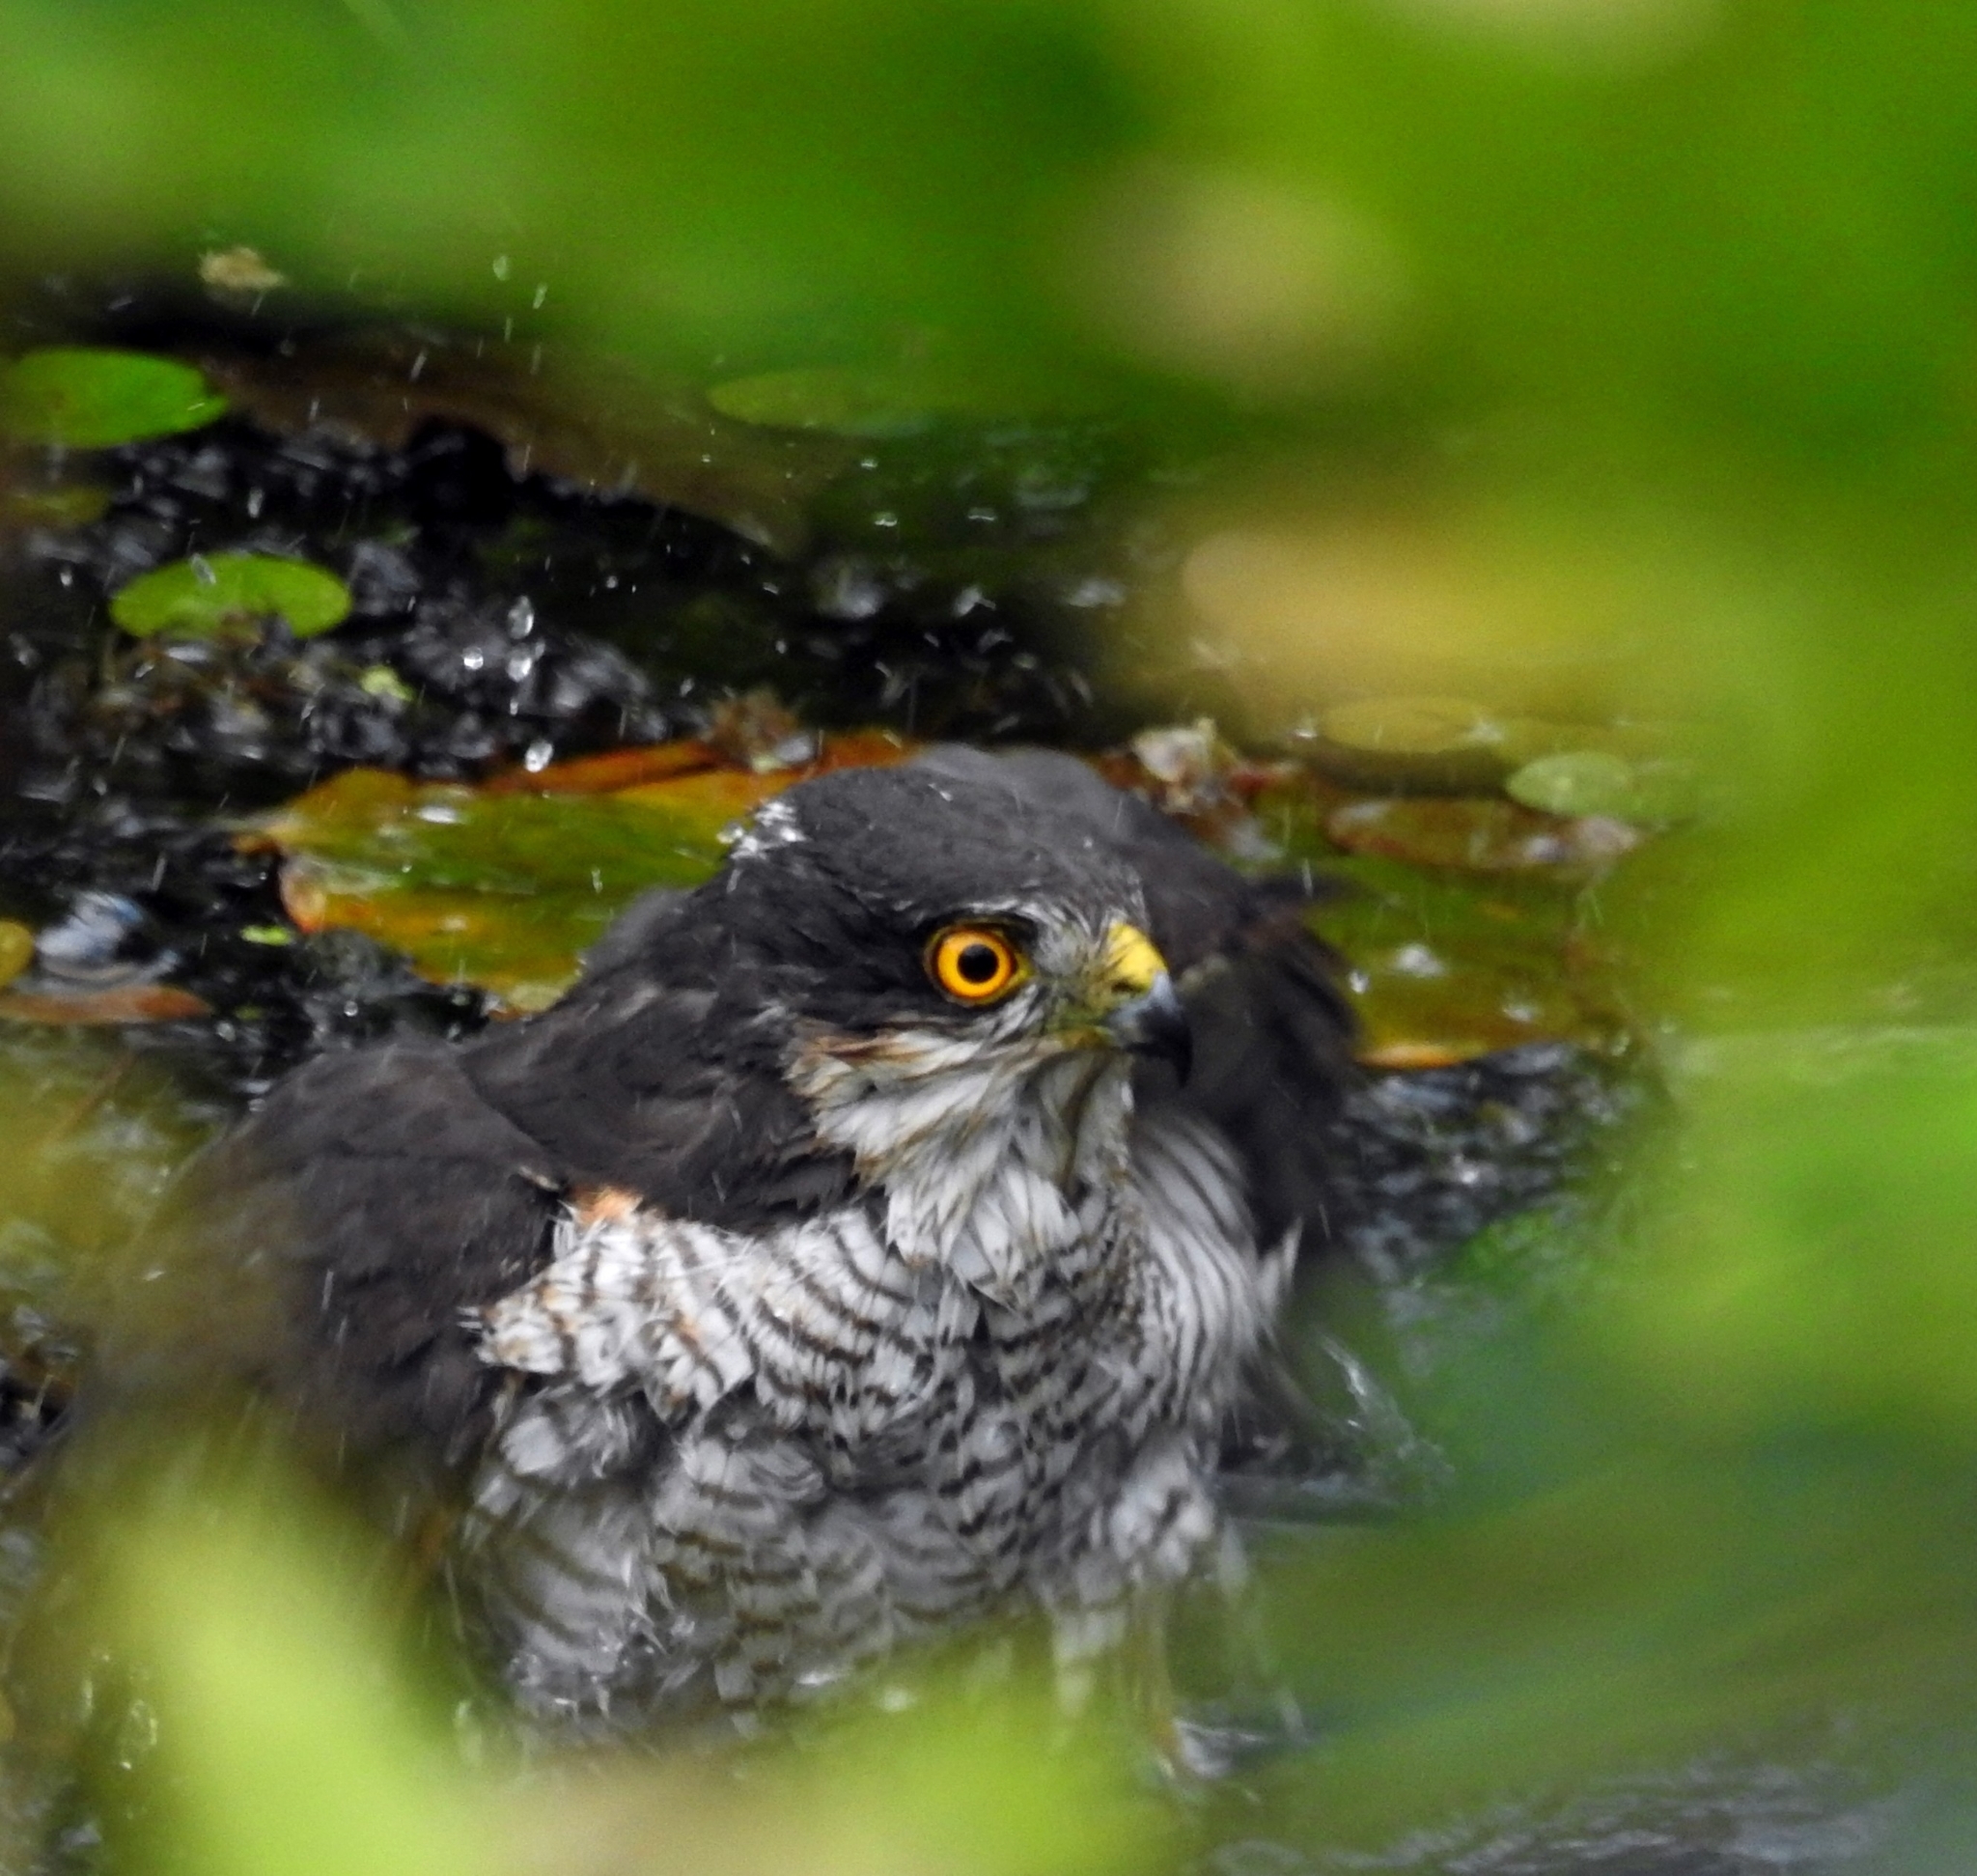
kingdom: Animalia
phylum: Chordata
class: Aves
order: Accipitriformes
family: Accipitridae
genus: Accipiter
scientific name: Accipiter nisus
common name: Eurasian sparrowhawk
